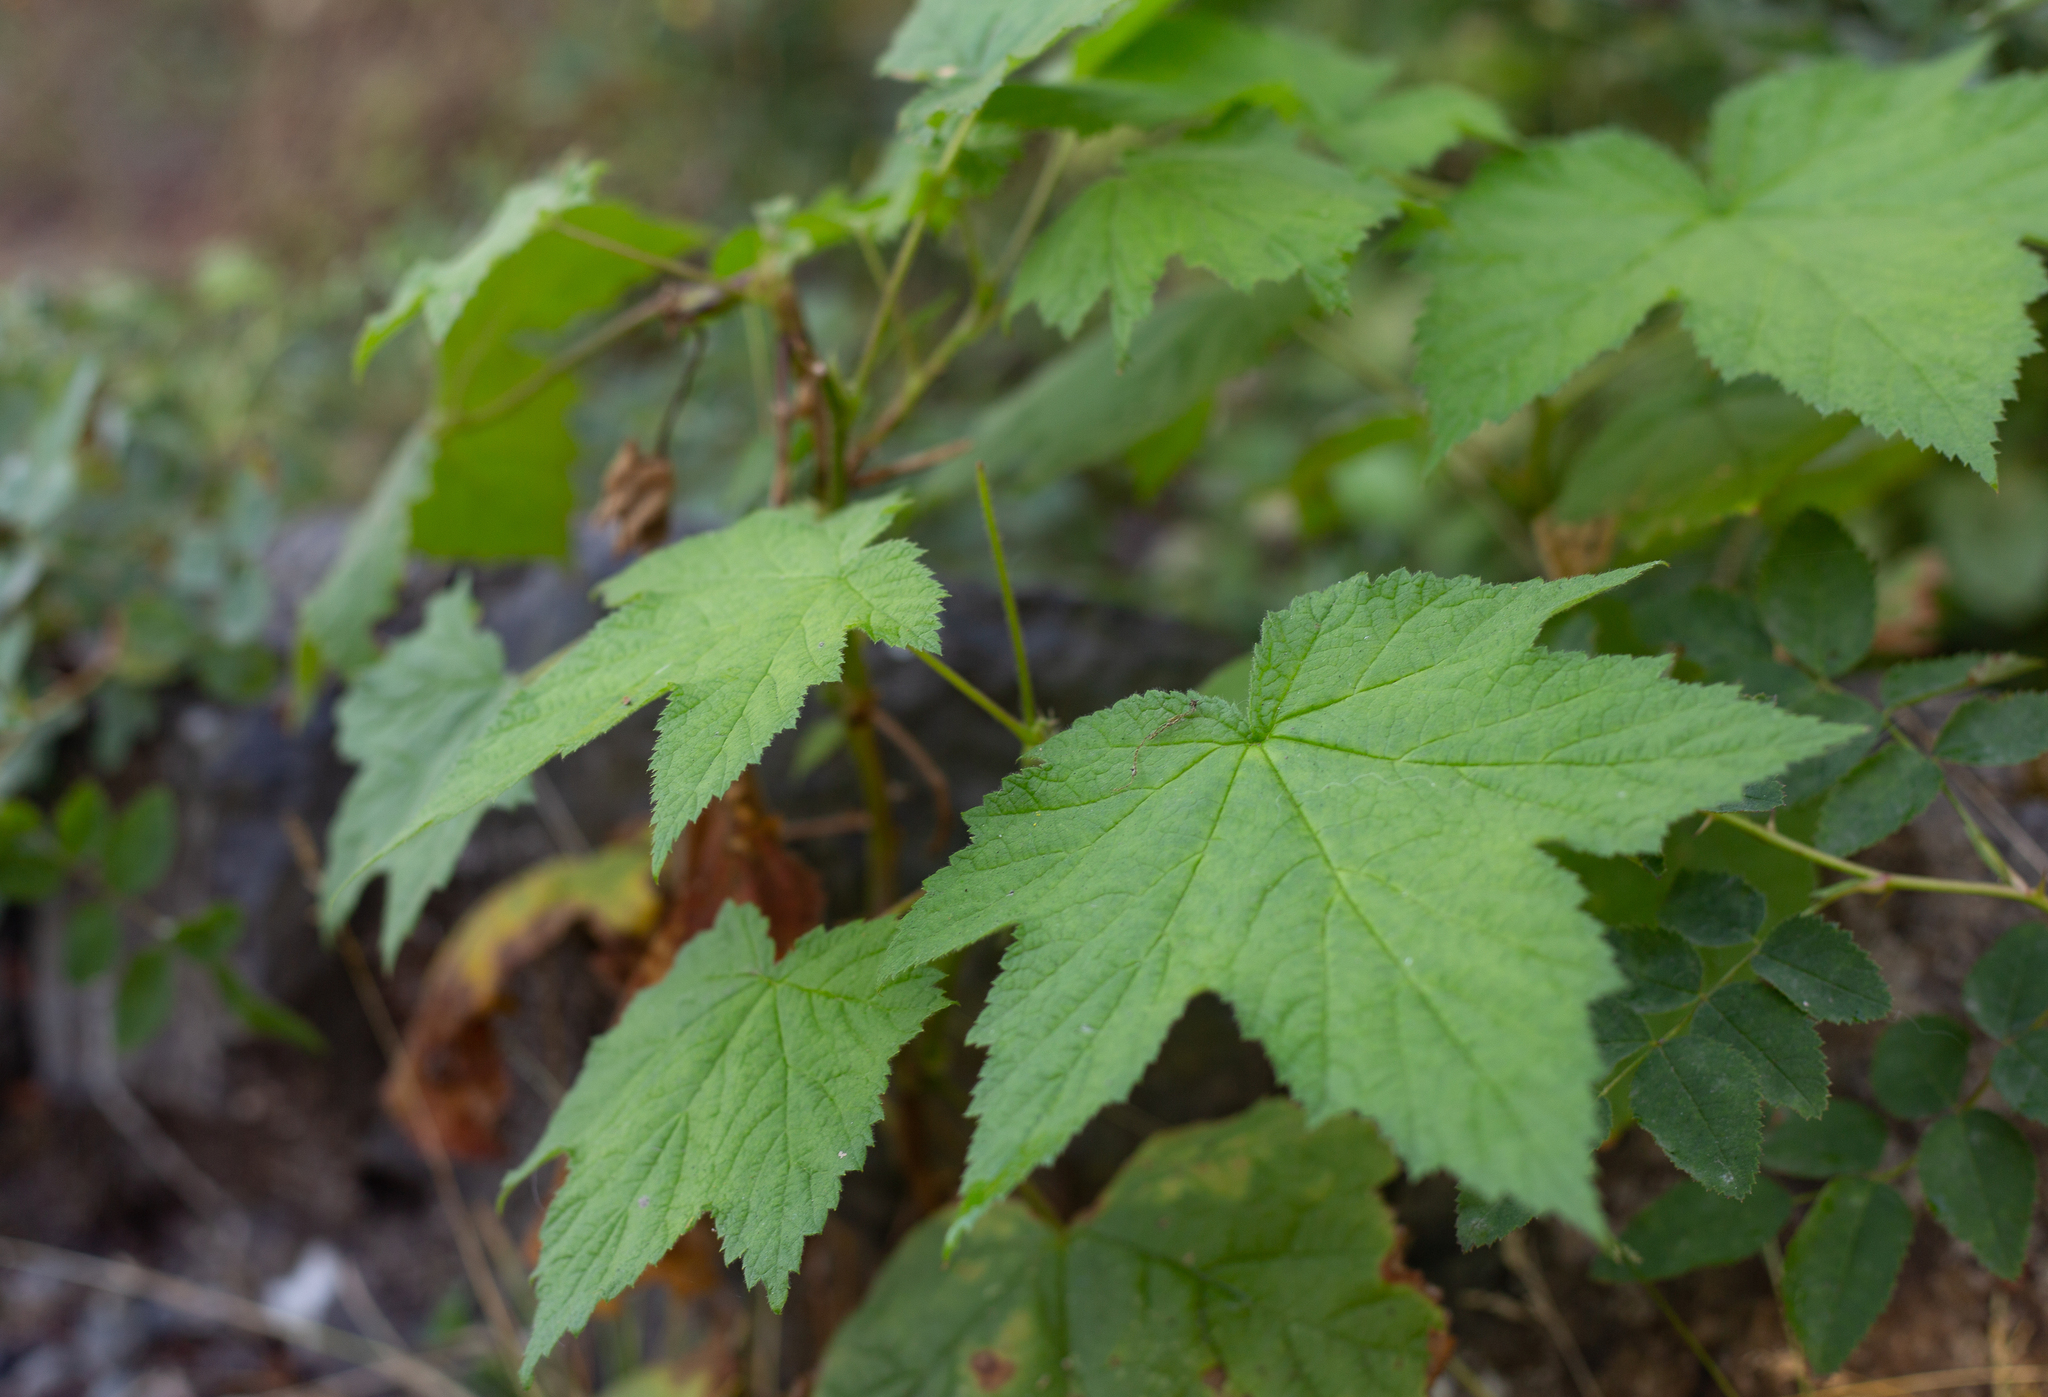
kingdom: Plantae
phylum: Tracheophyta
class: Magnoliopsida
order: Rosales
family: Rosaceae
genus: Rubus
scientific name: Rubus parviflorus
